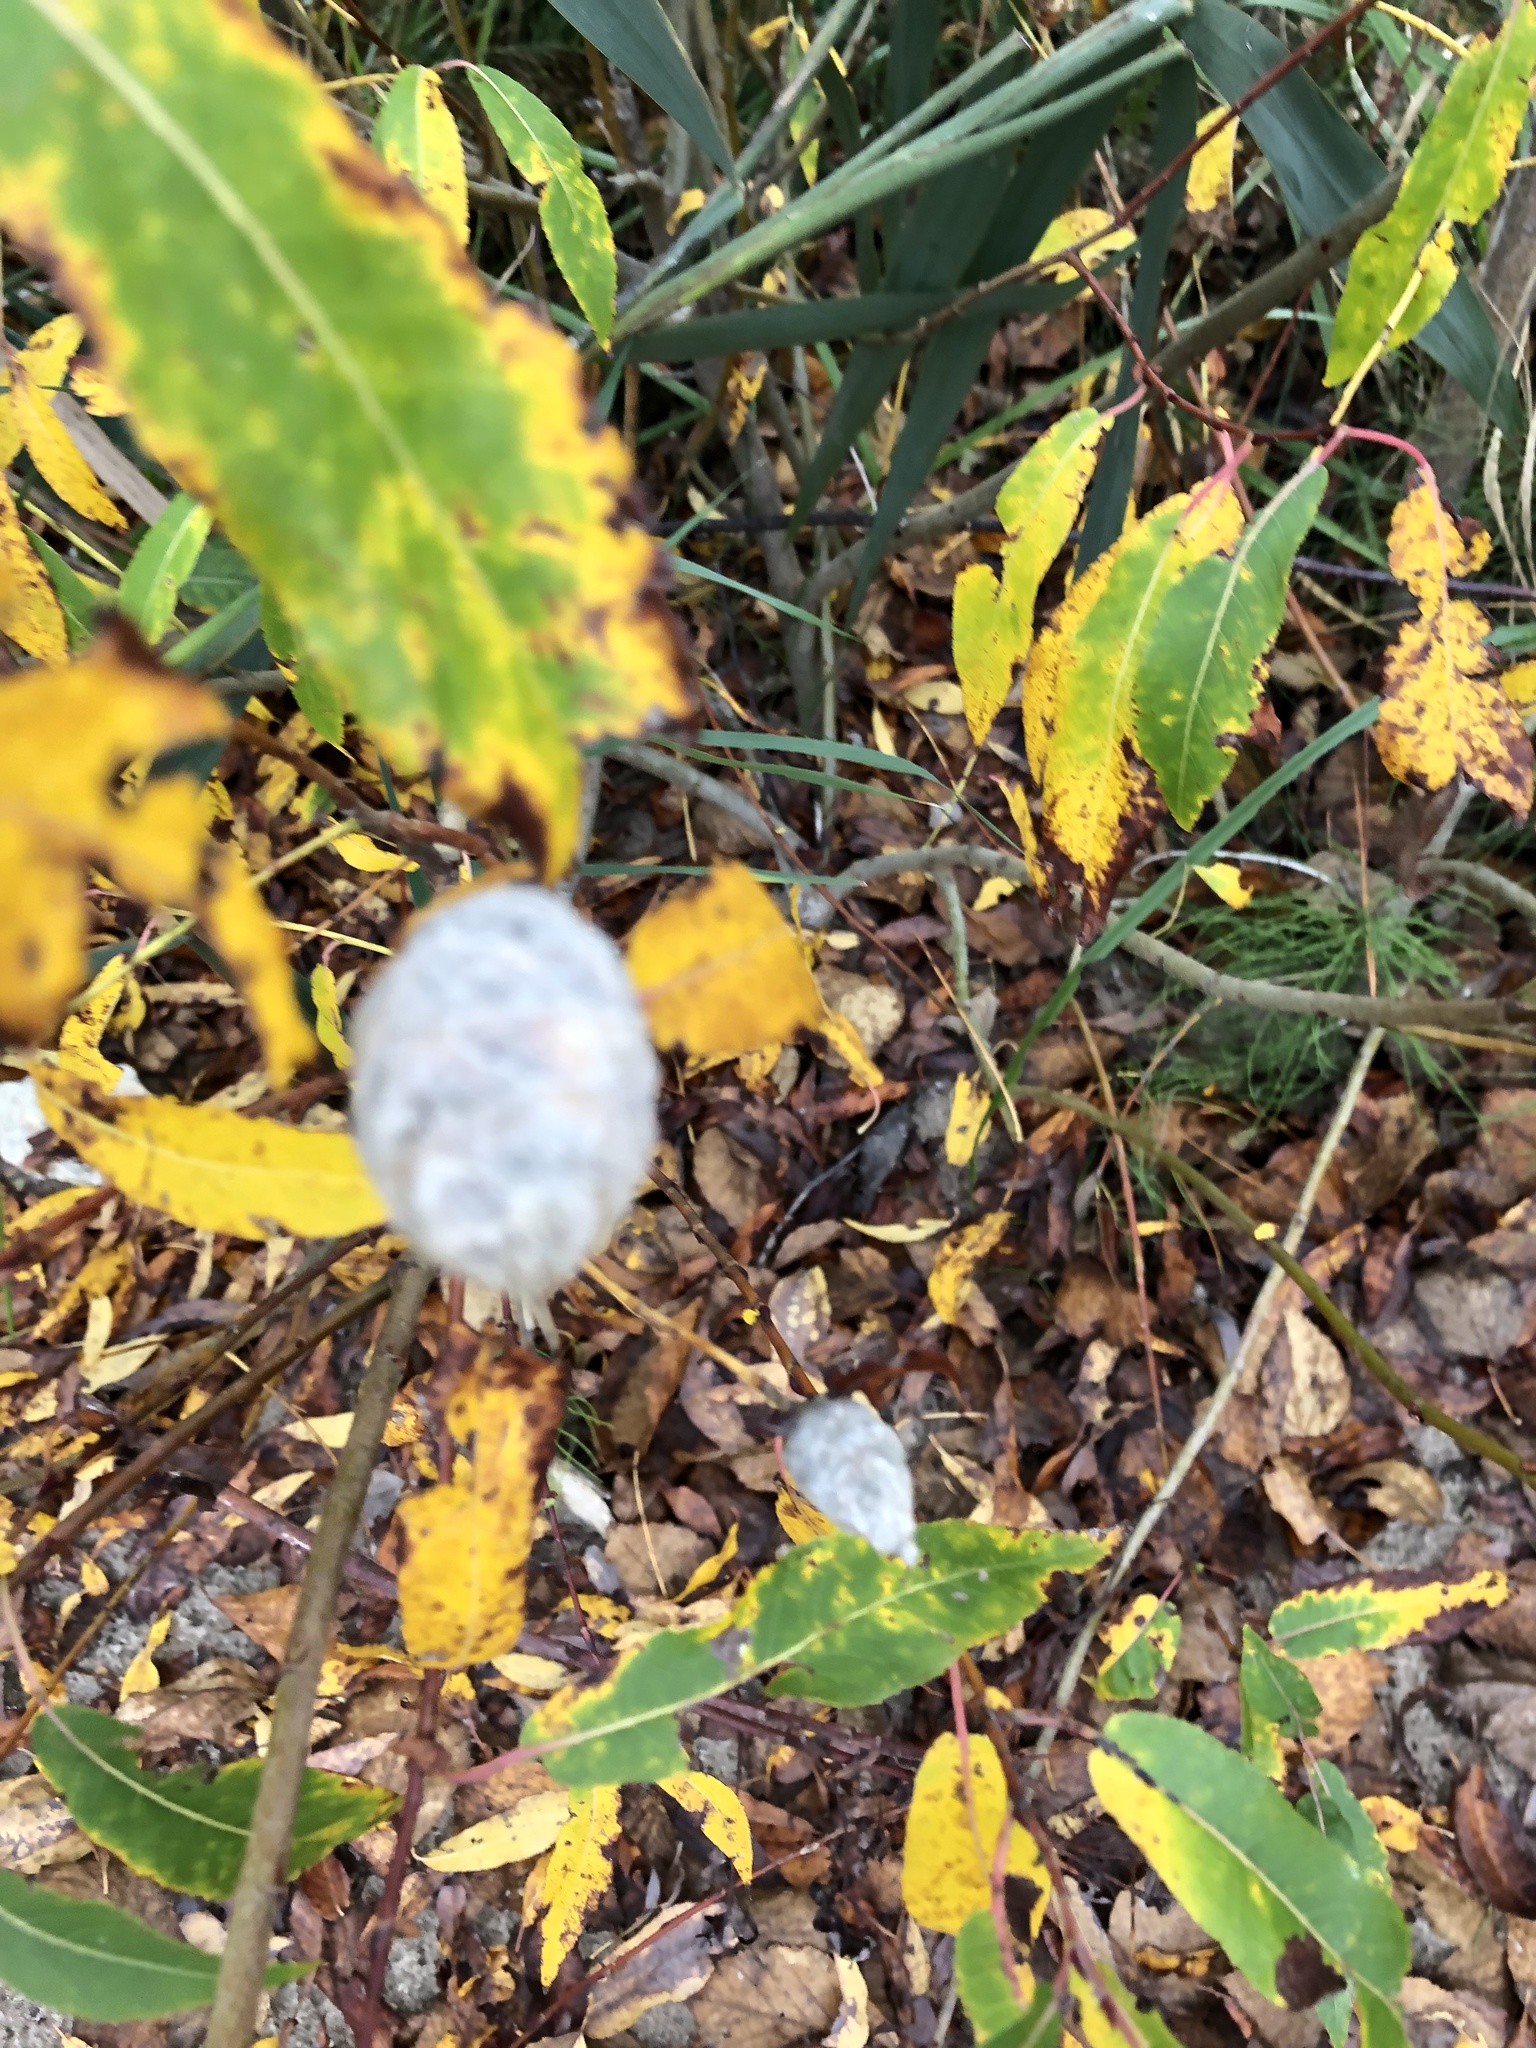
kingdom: Animalia
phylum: Arthropoda
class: Insecta
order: Diptera
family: Cecidomyiidae
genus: Rabdophaga
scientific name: Rabdophaga strobiloides
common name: Willow pinecone gall midge
